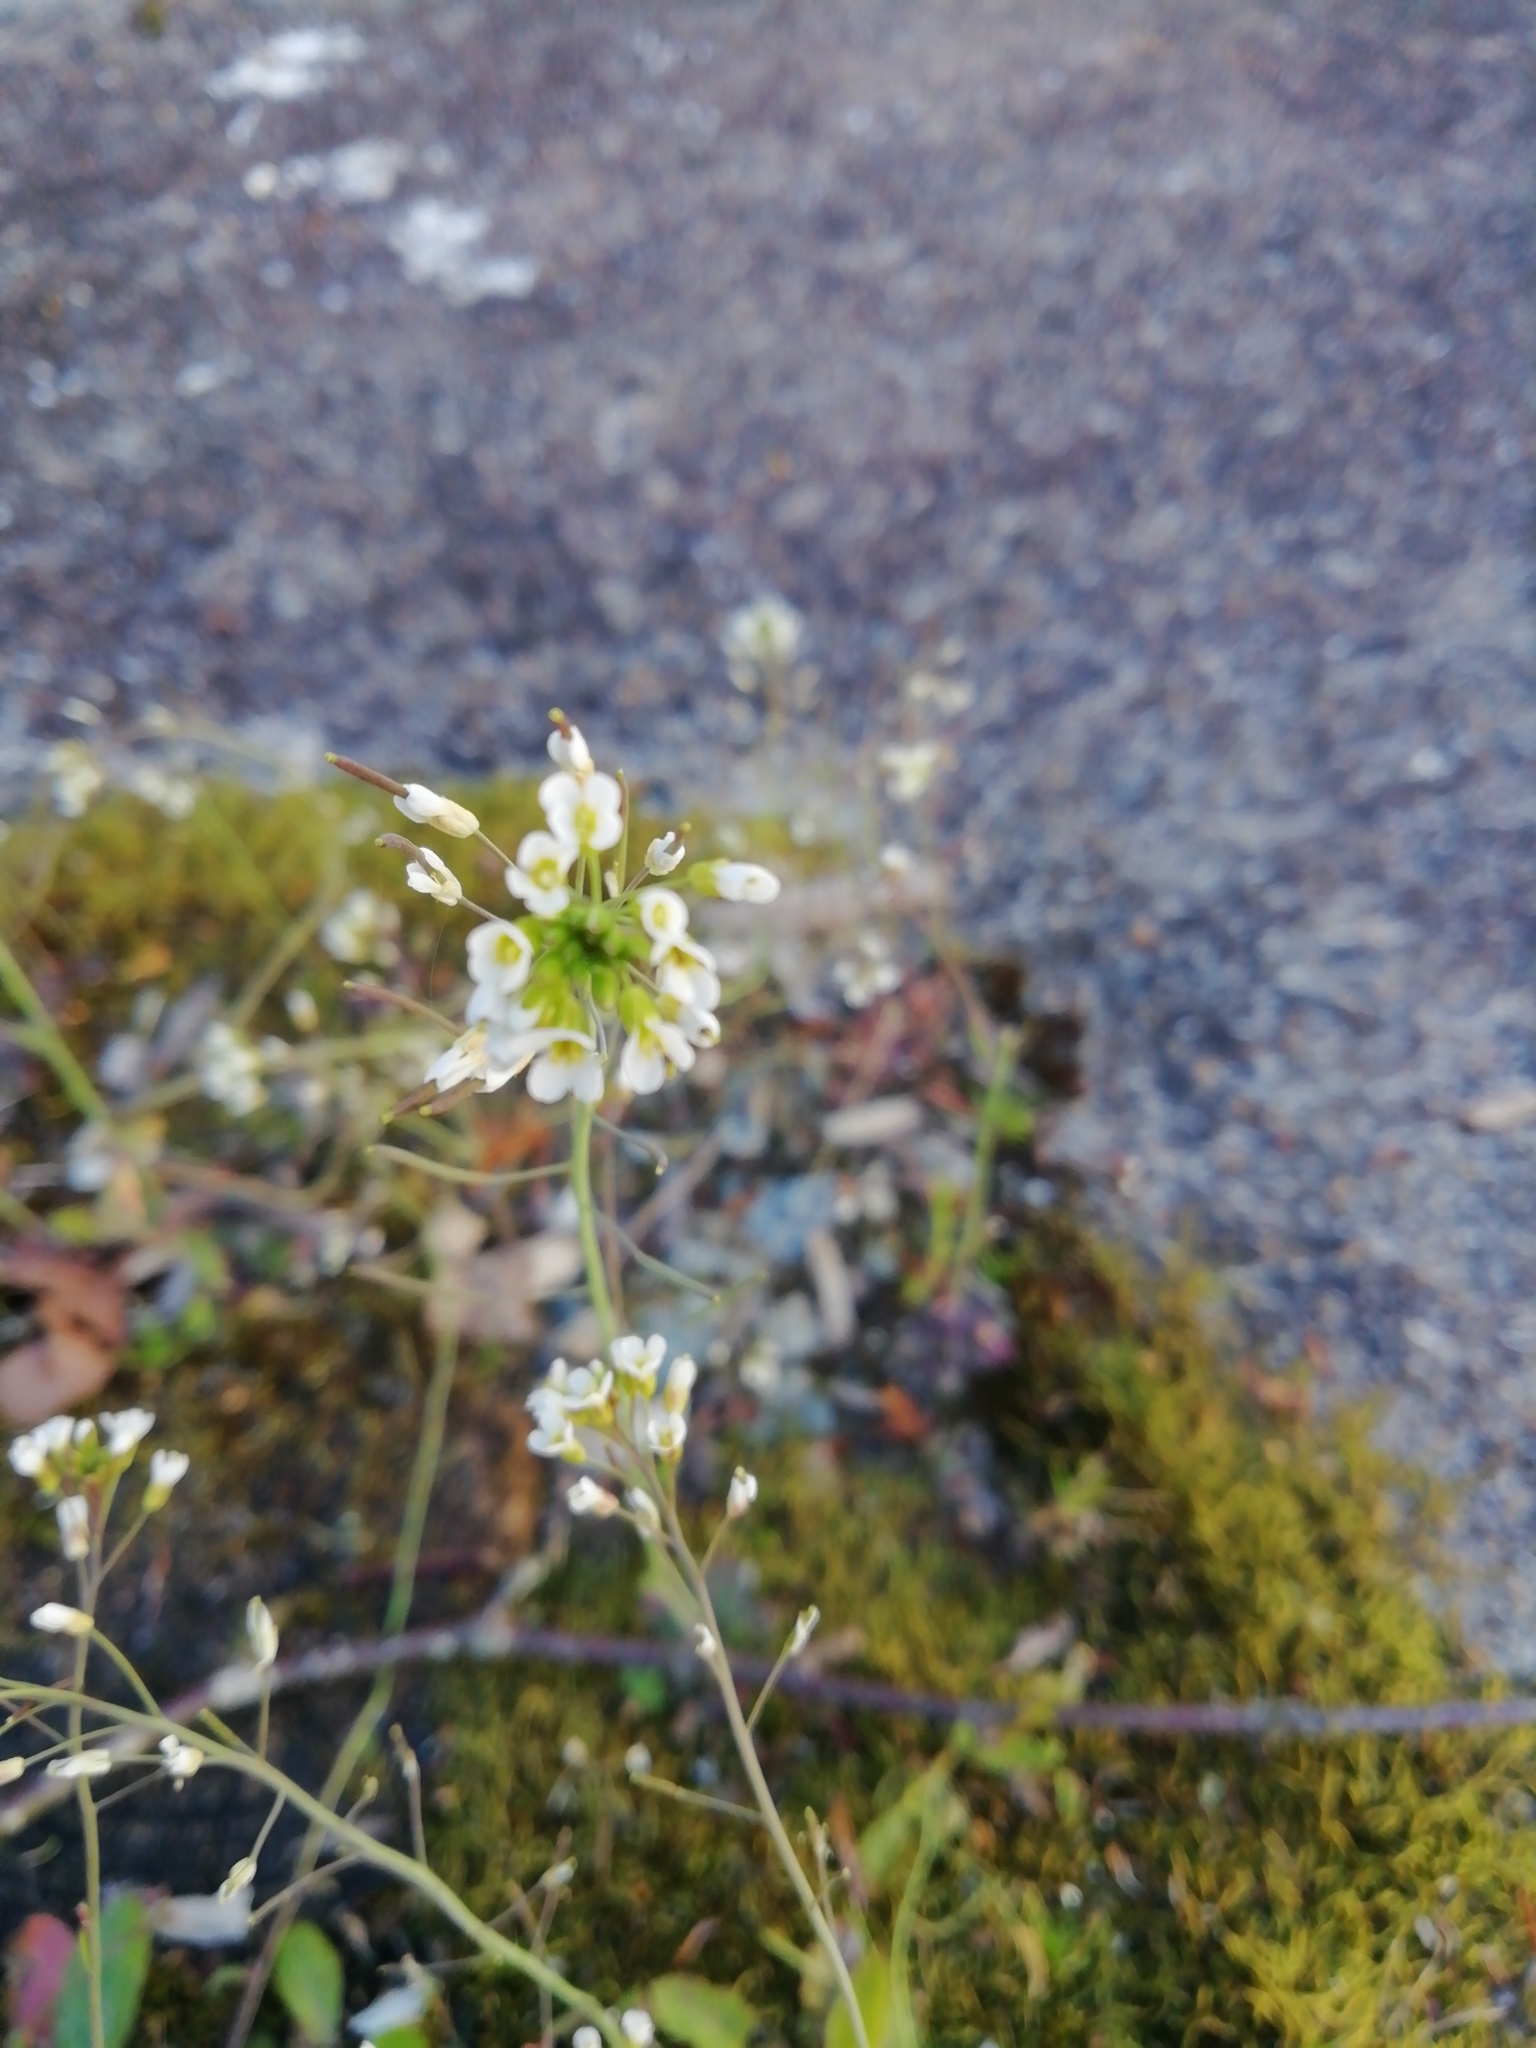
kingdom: Plantae
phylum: Tracheophyta
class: Magnoliopsida
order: Brassicales
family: Brassicaceae
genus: Arabidopsis
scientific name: Arabidopsis thaliana
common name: Thale cress
